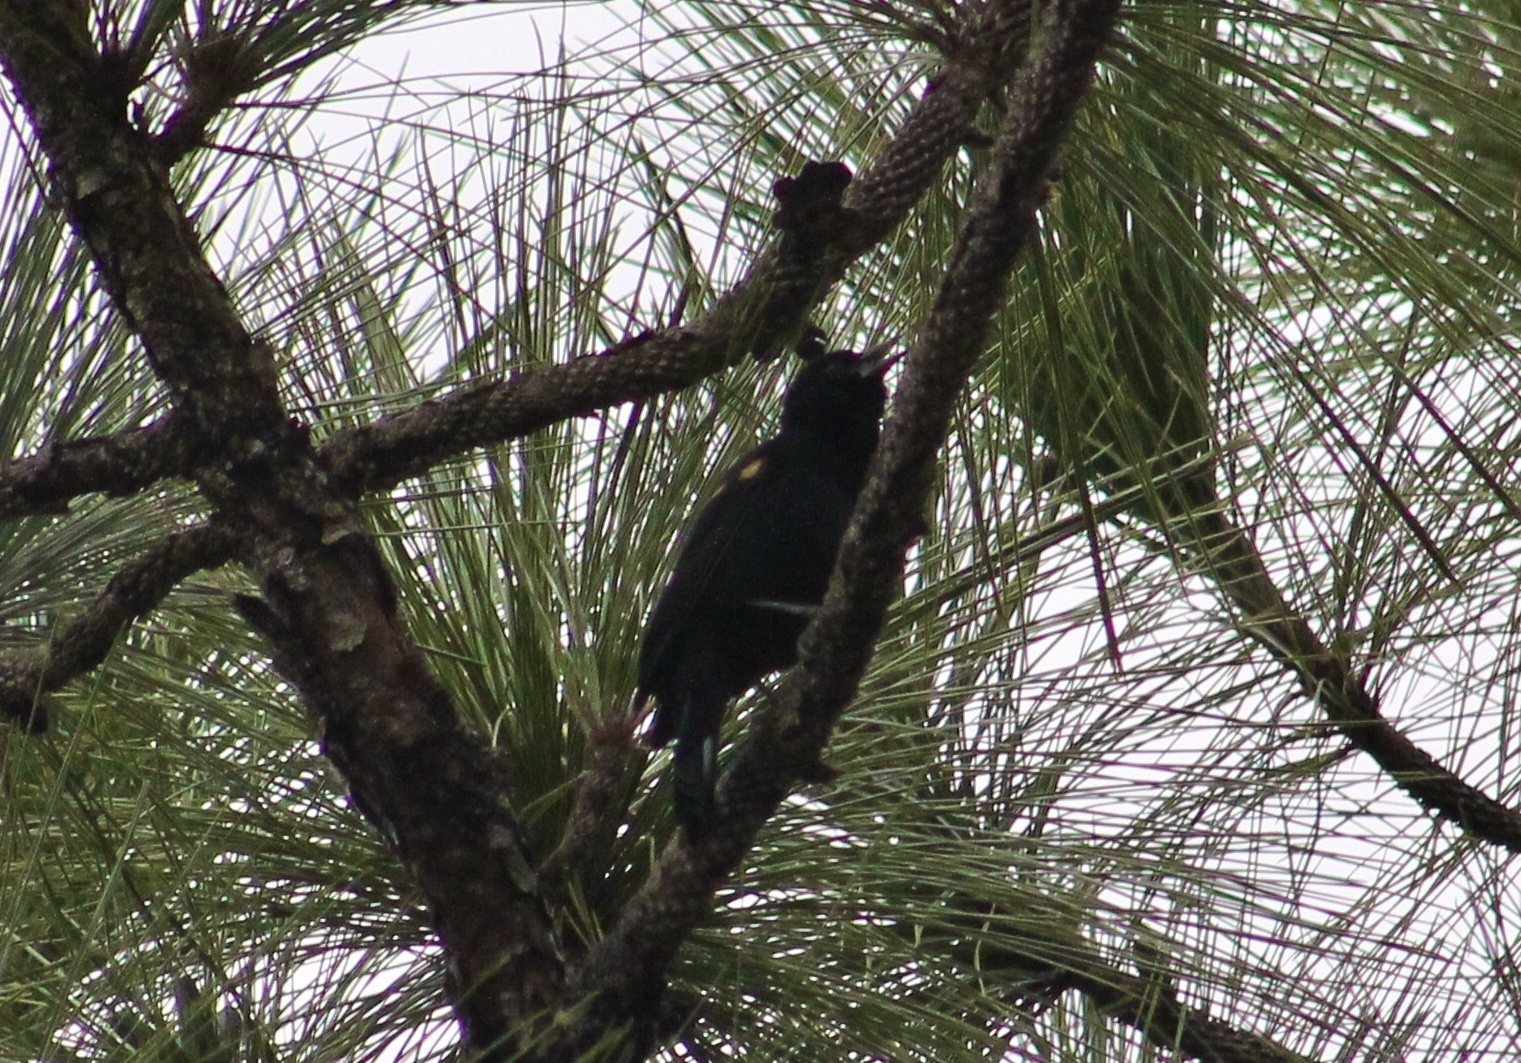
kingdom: Animalia
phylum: Chordata
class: Aves
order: Passeriformes
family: Icteridae
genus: Agelaius
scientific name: Agelaius phoeniceus
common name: Red-winged blackbird
